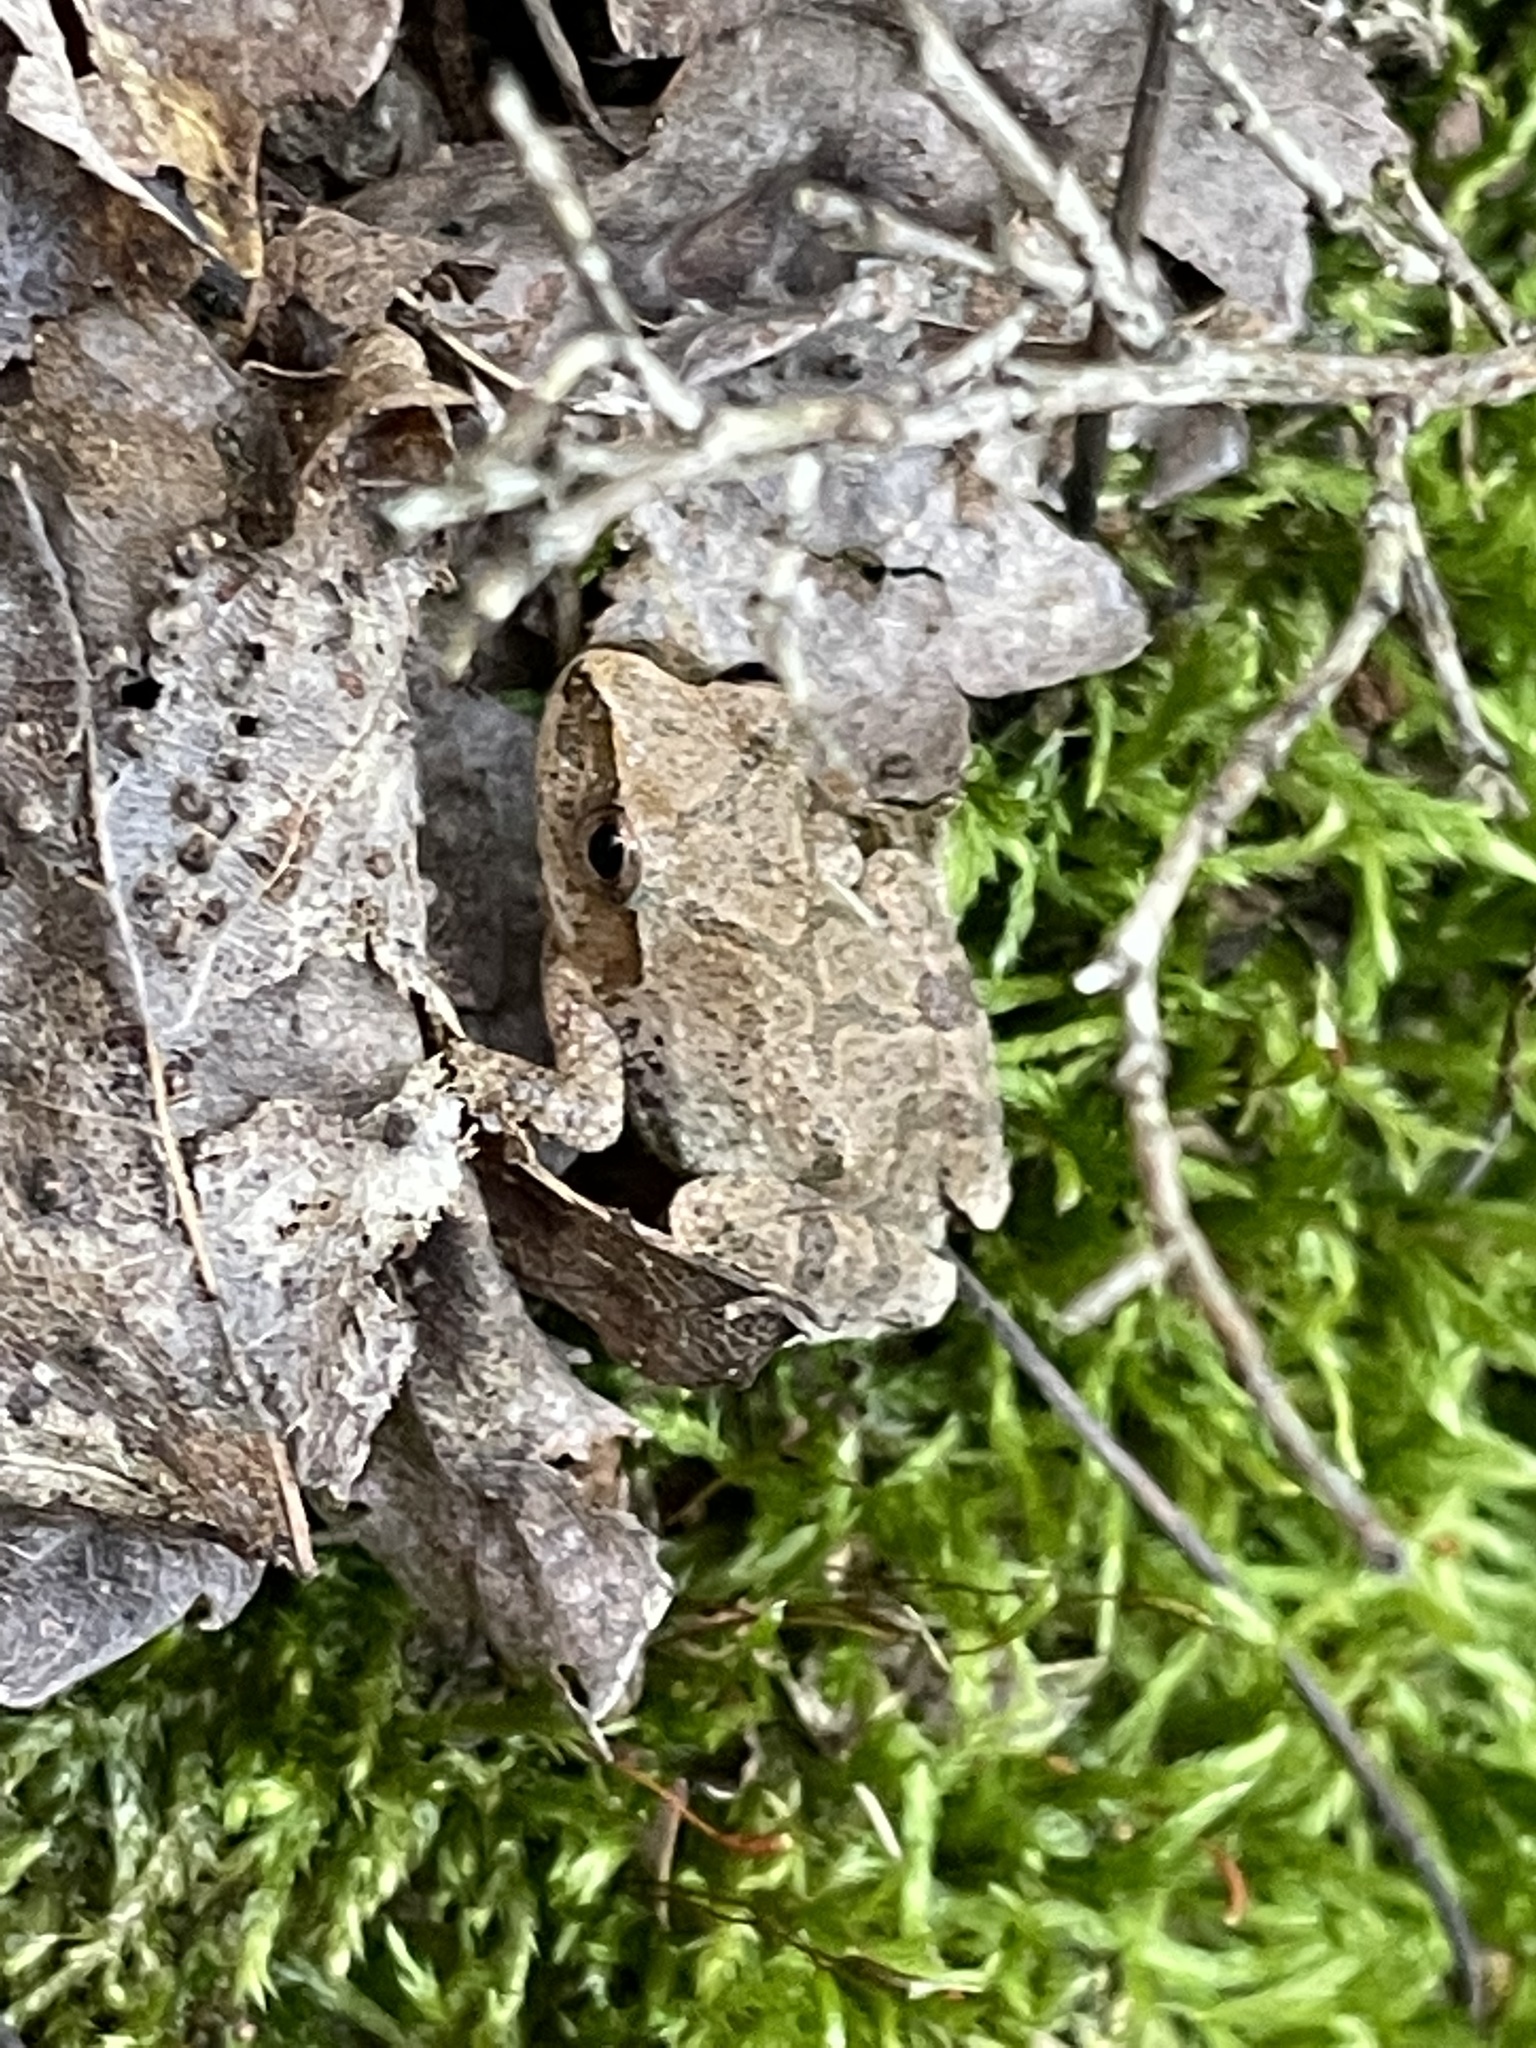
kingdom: Animalia
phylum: Chordata
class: Amphibia
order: Anura
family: Hylidae
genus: Pseudacris
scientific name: Pseudacris crucifer
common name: Spring peeper
